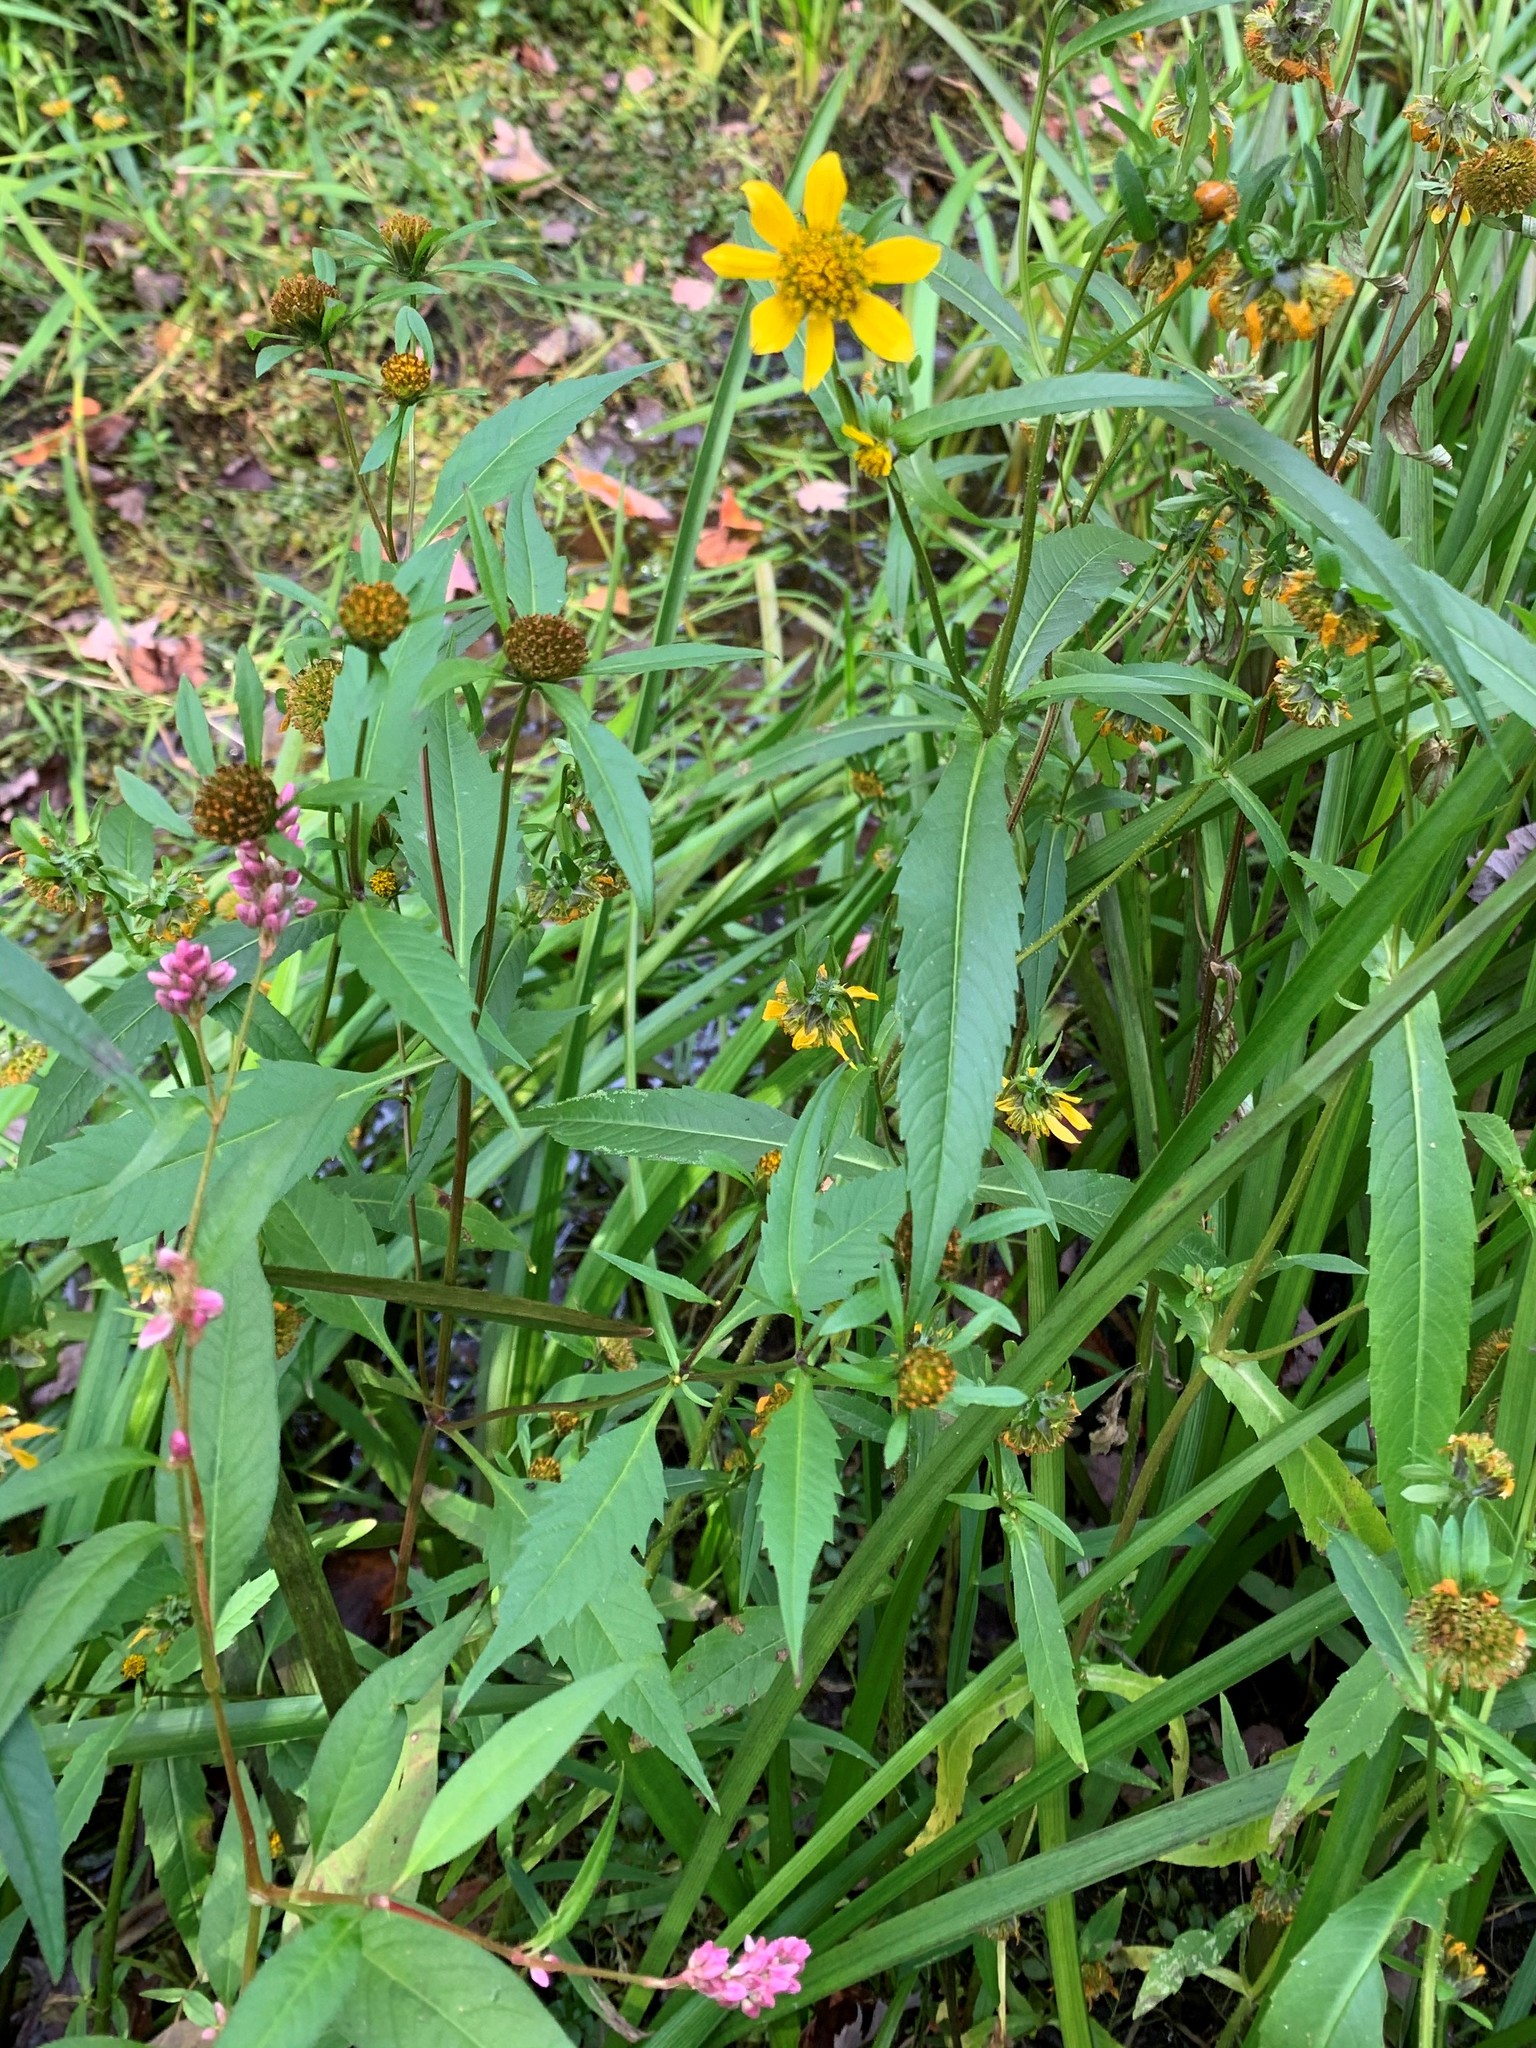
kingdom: Plantae
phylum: Tracheophyta
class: Magnoliopsida
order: Asterales
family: Asteraceae
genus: Bidens
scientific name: Bidens cernua
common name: Nodding bur-marigold
